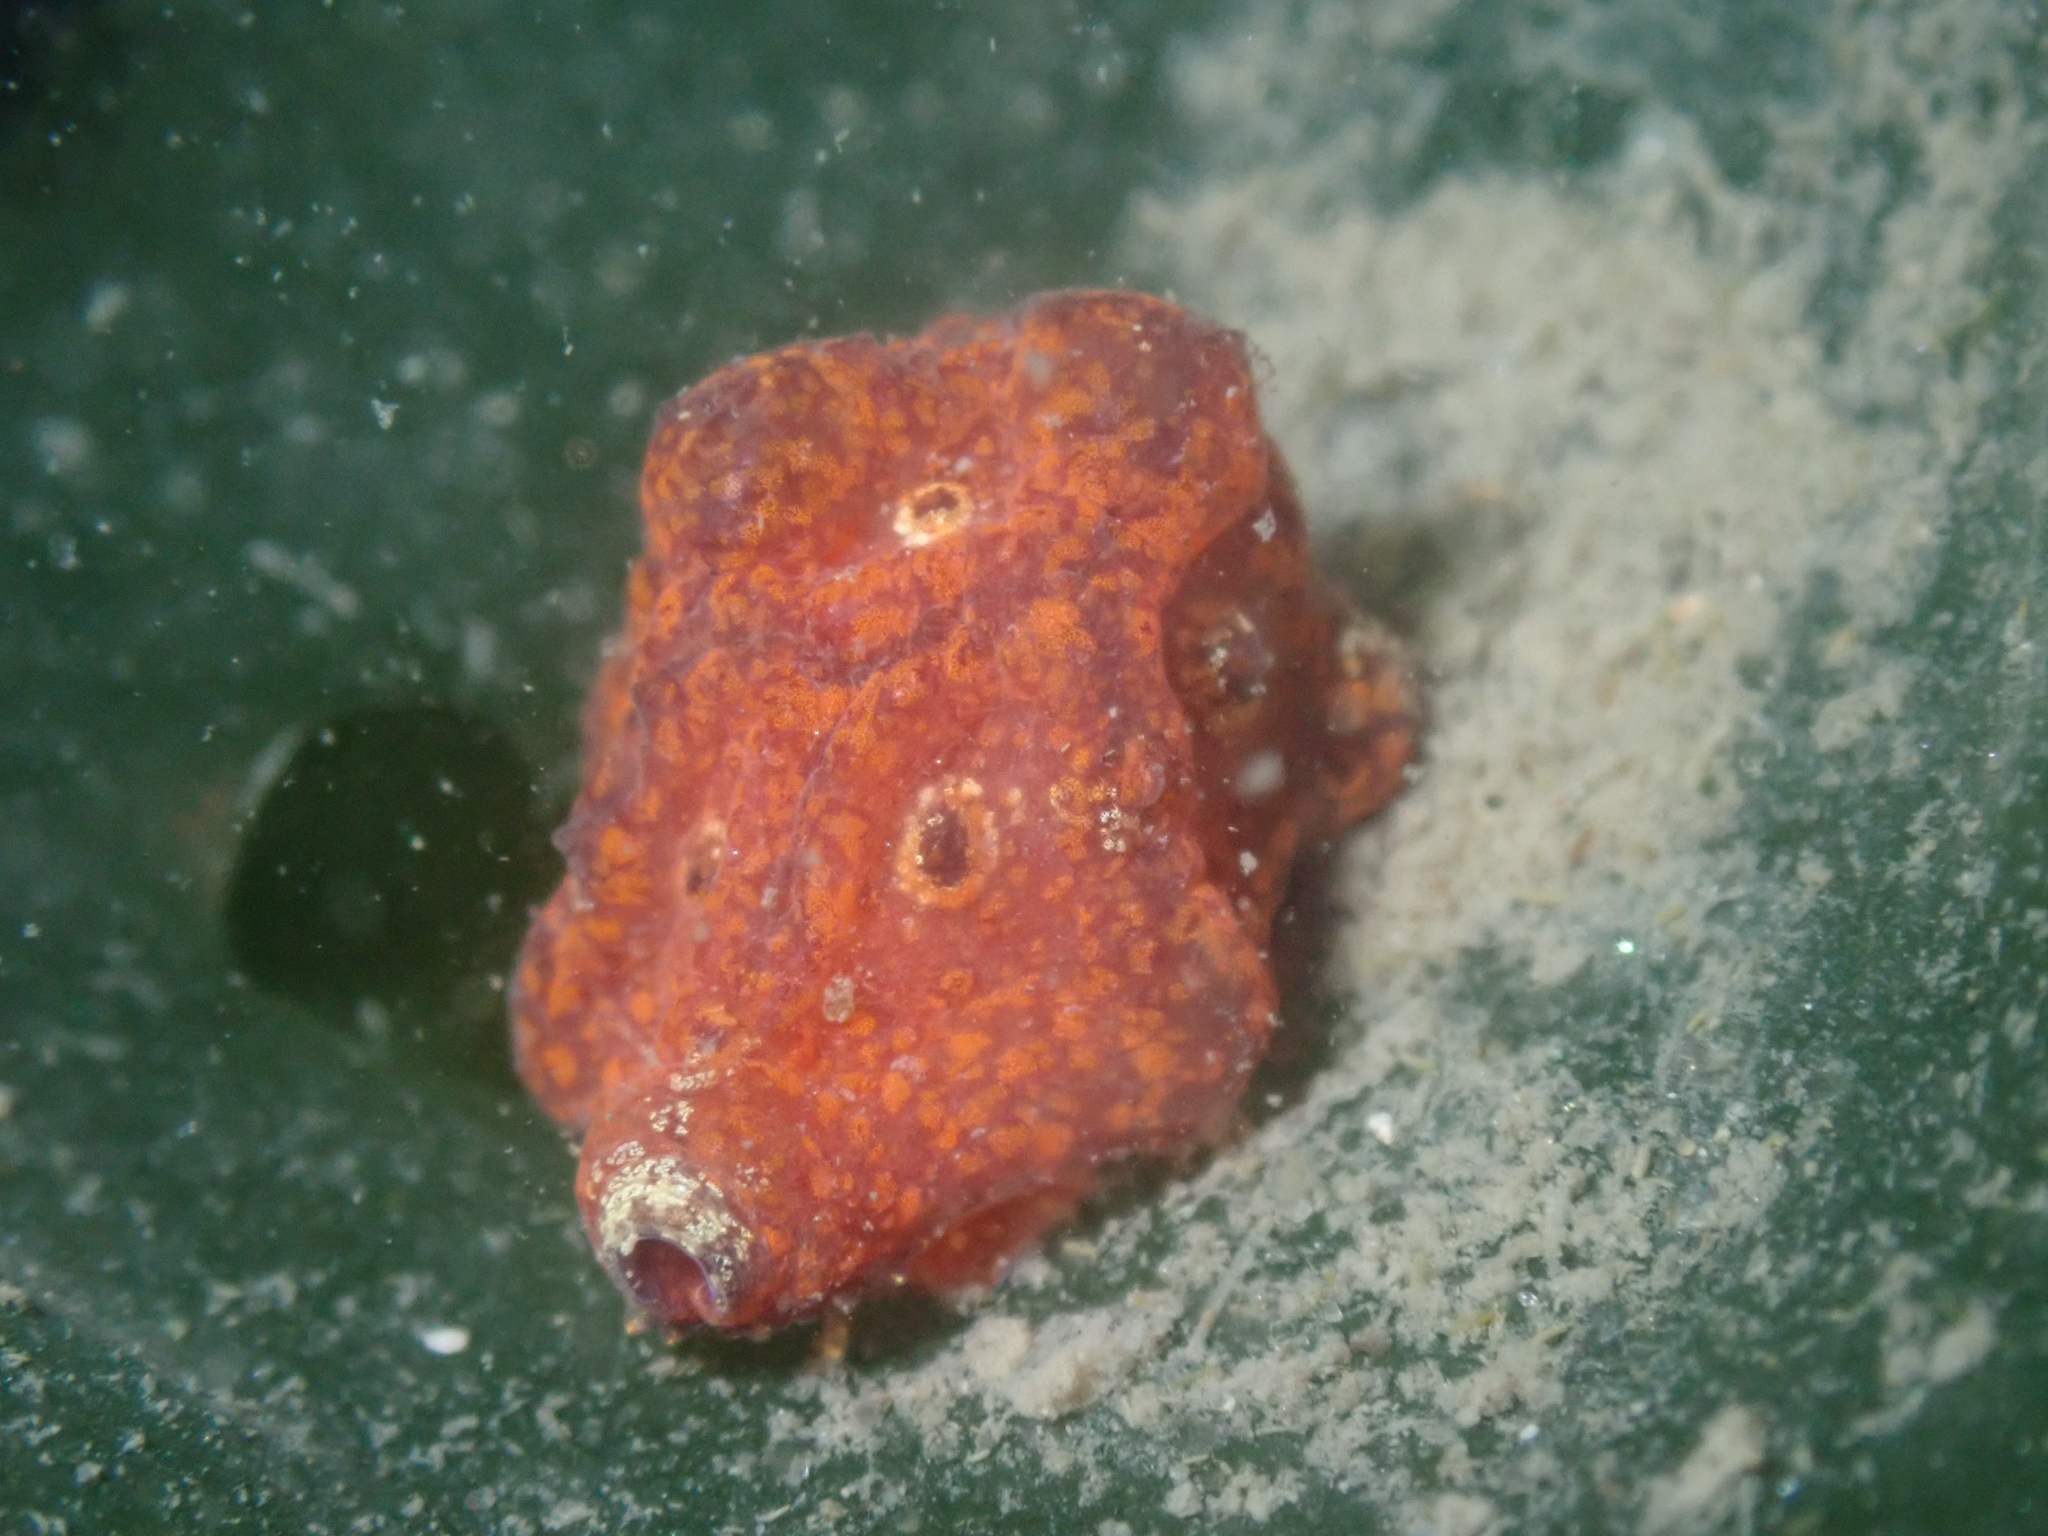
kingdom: Animalia
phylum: Mollusca
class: Gastropoda
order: Littorinimorpha
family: Velutinidae
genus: Hainotis
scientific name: Hainotis sharonae
